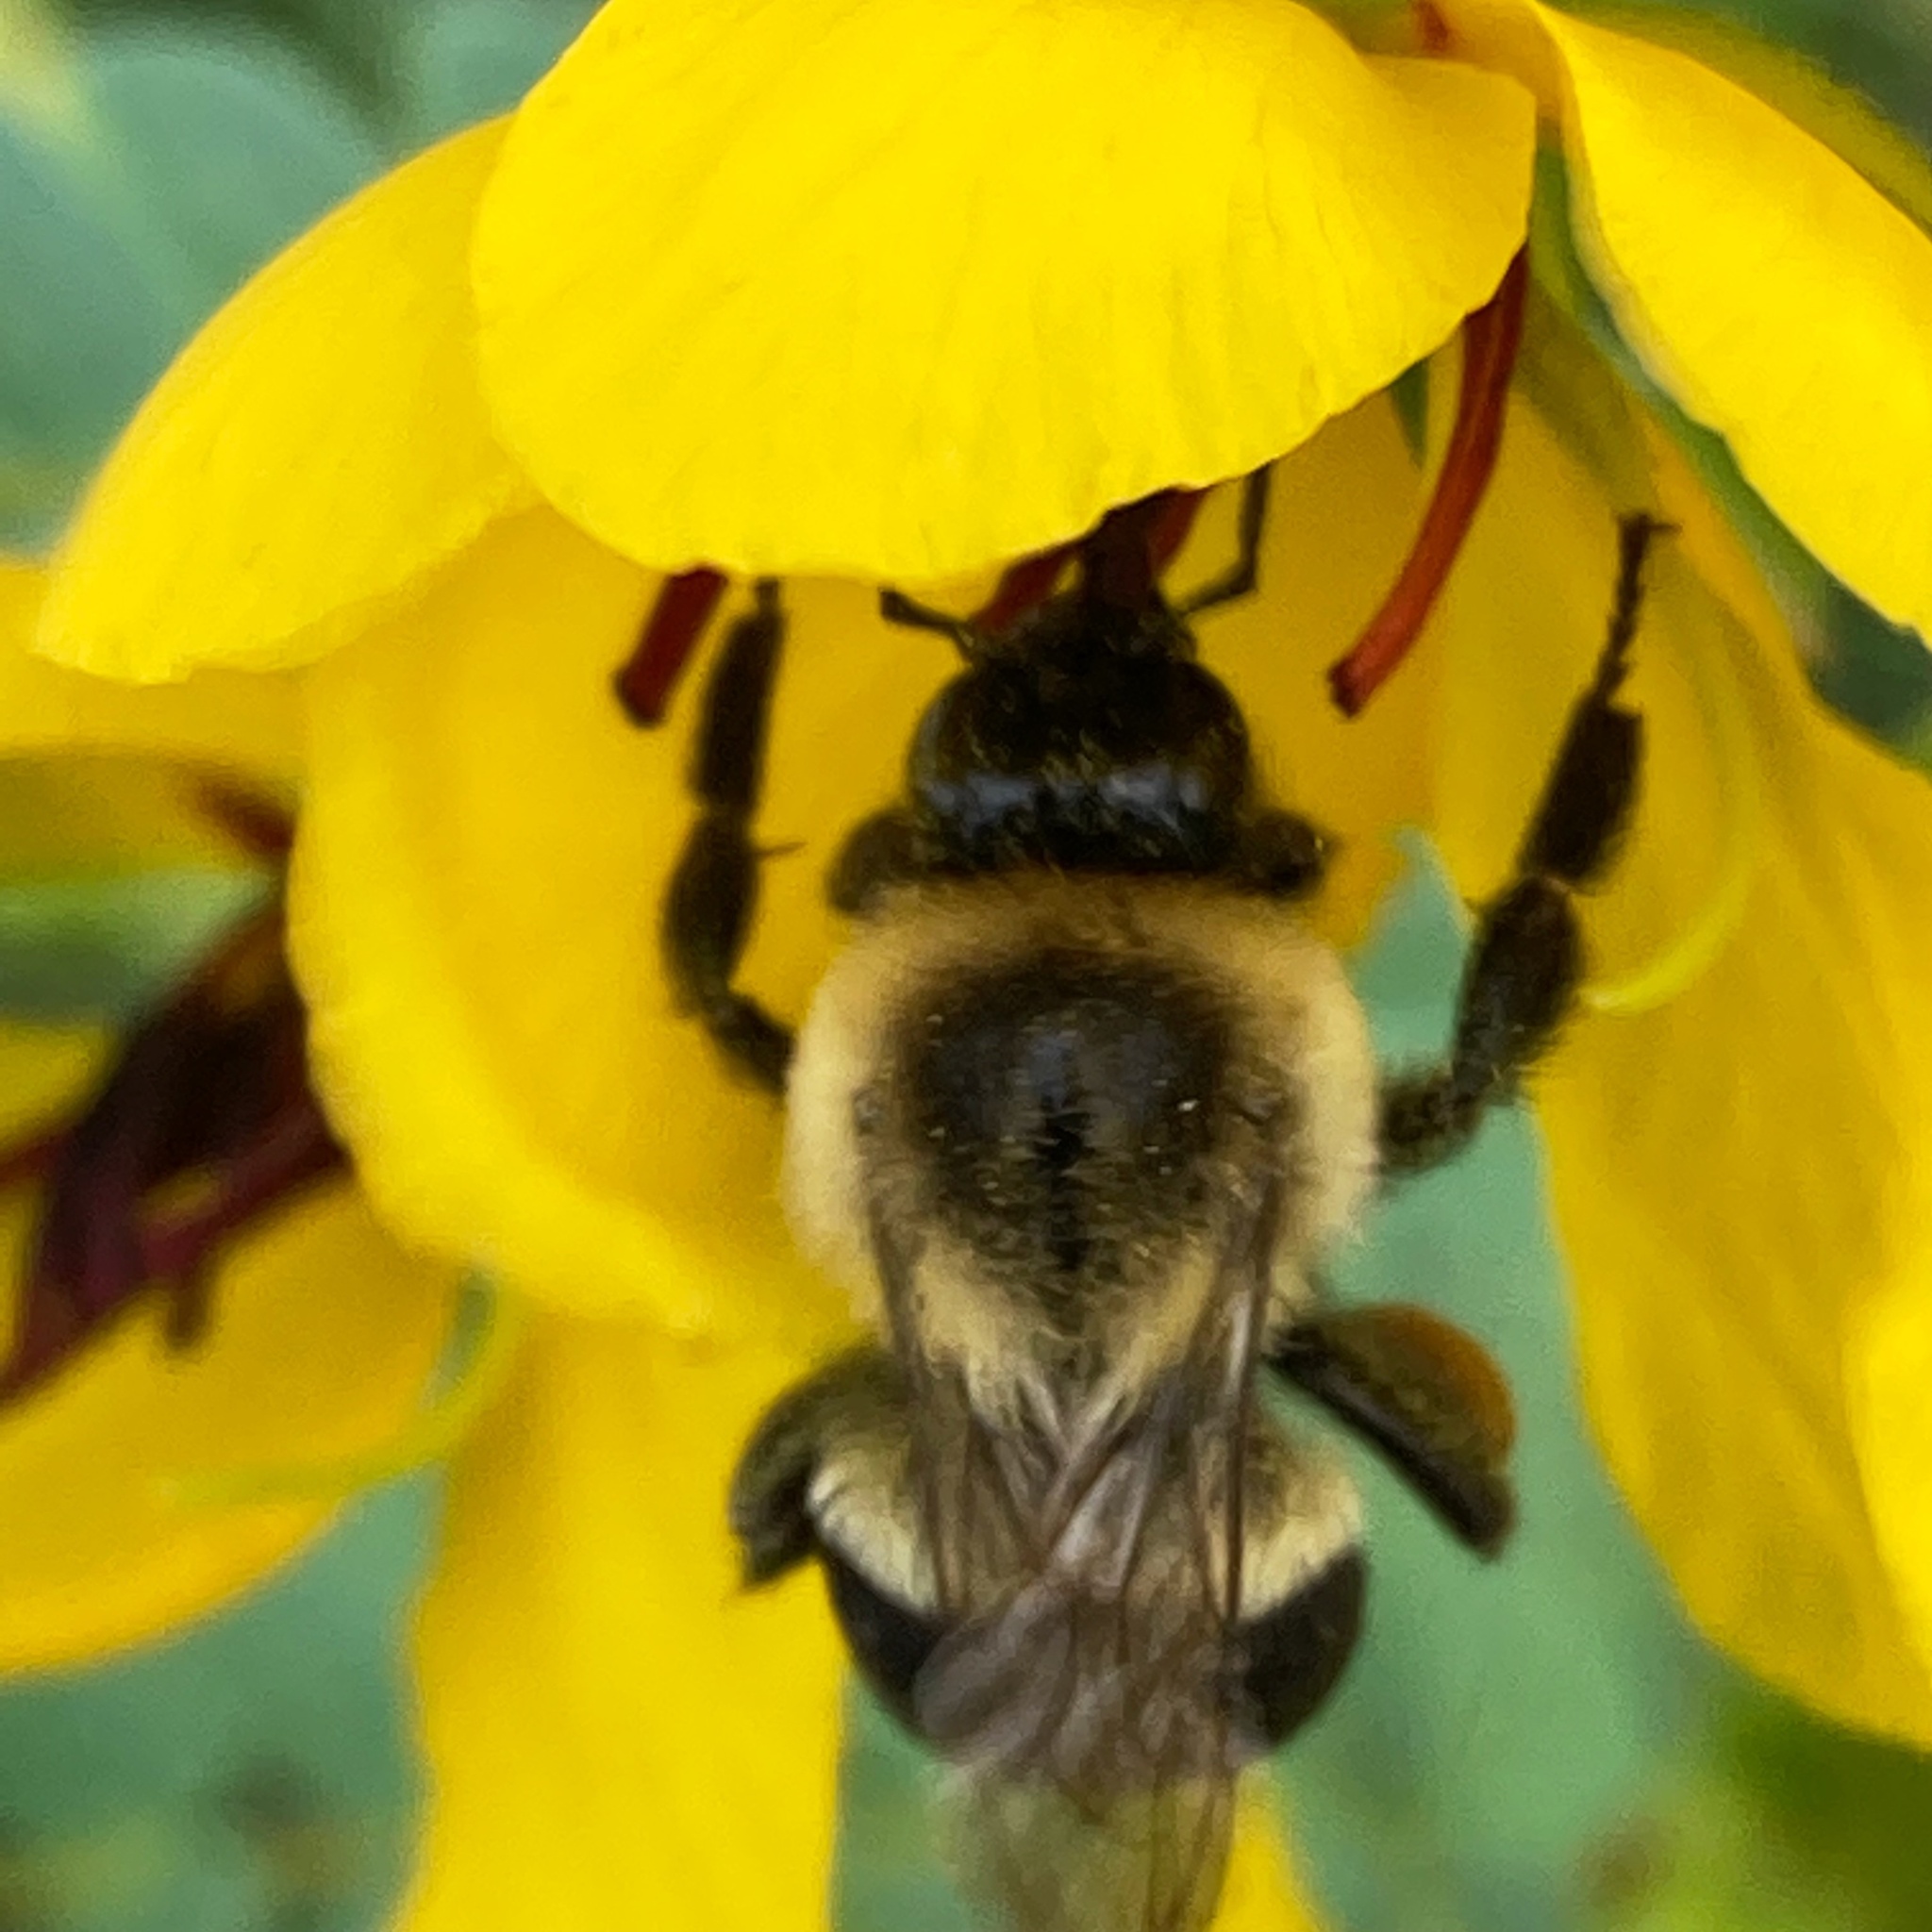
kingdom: Animalia
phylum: Arthropoda
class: Insecta
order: Hymenoptera
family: Apidae
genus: Bombus
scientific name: Bombus impatiens
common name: Common eastern bumble bee
